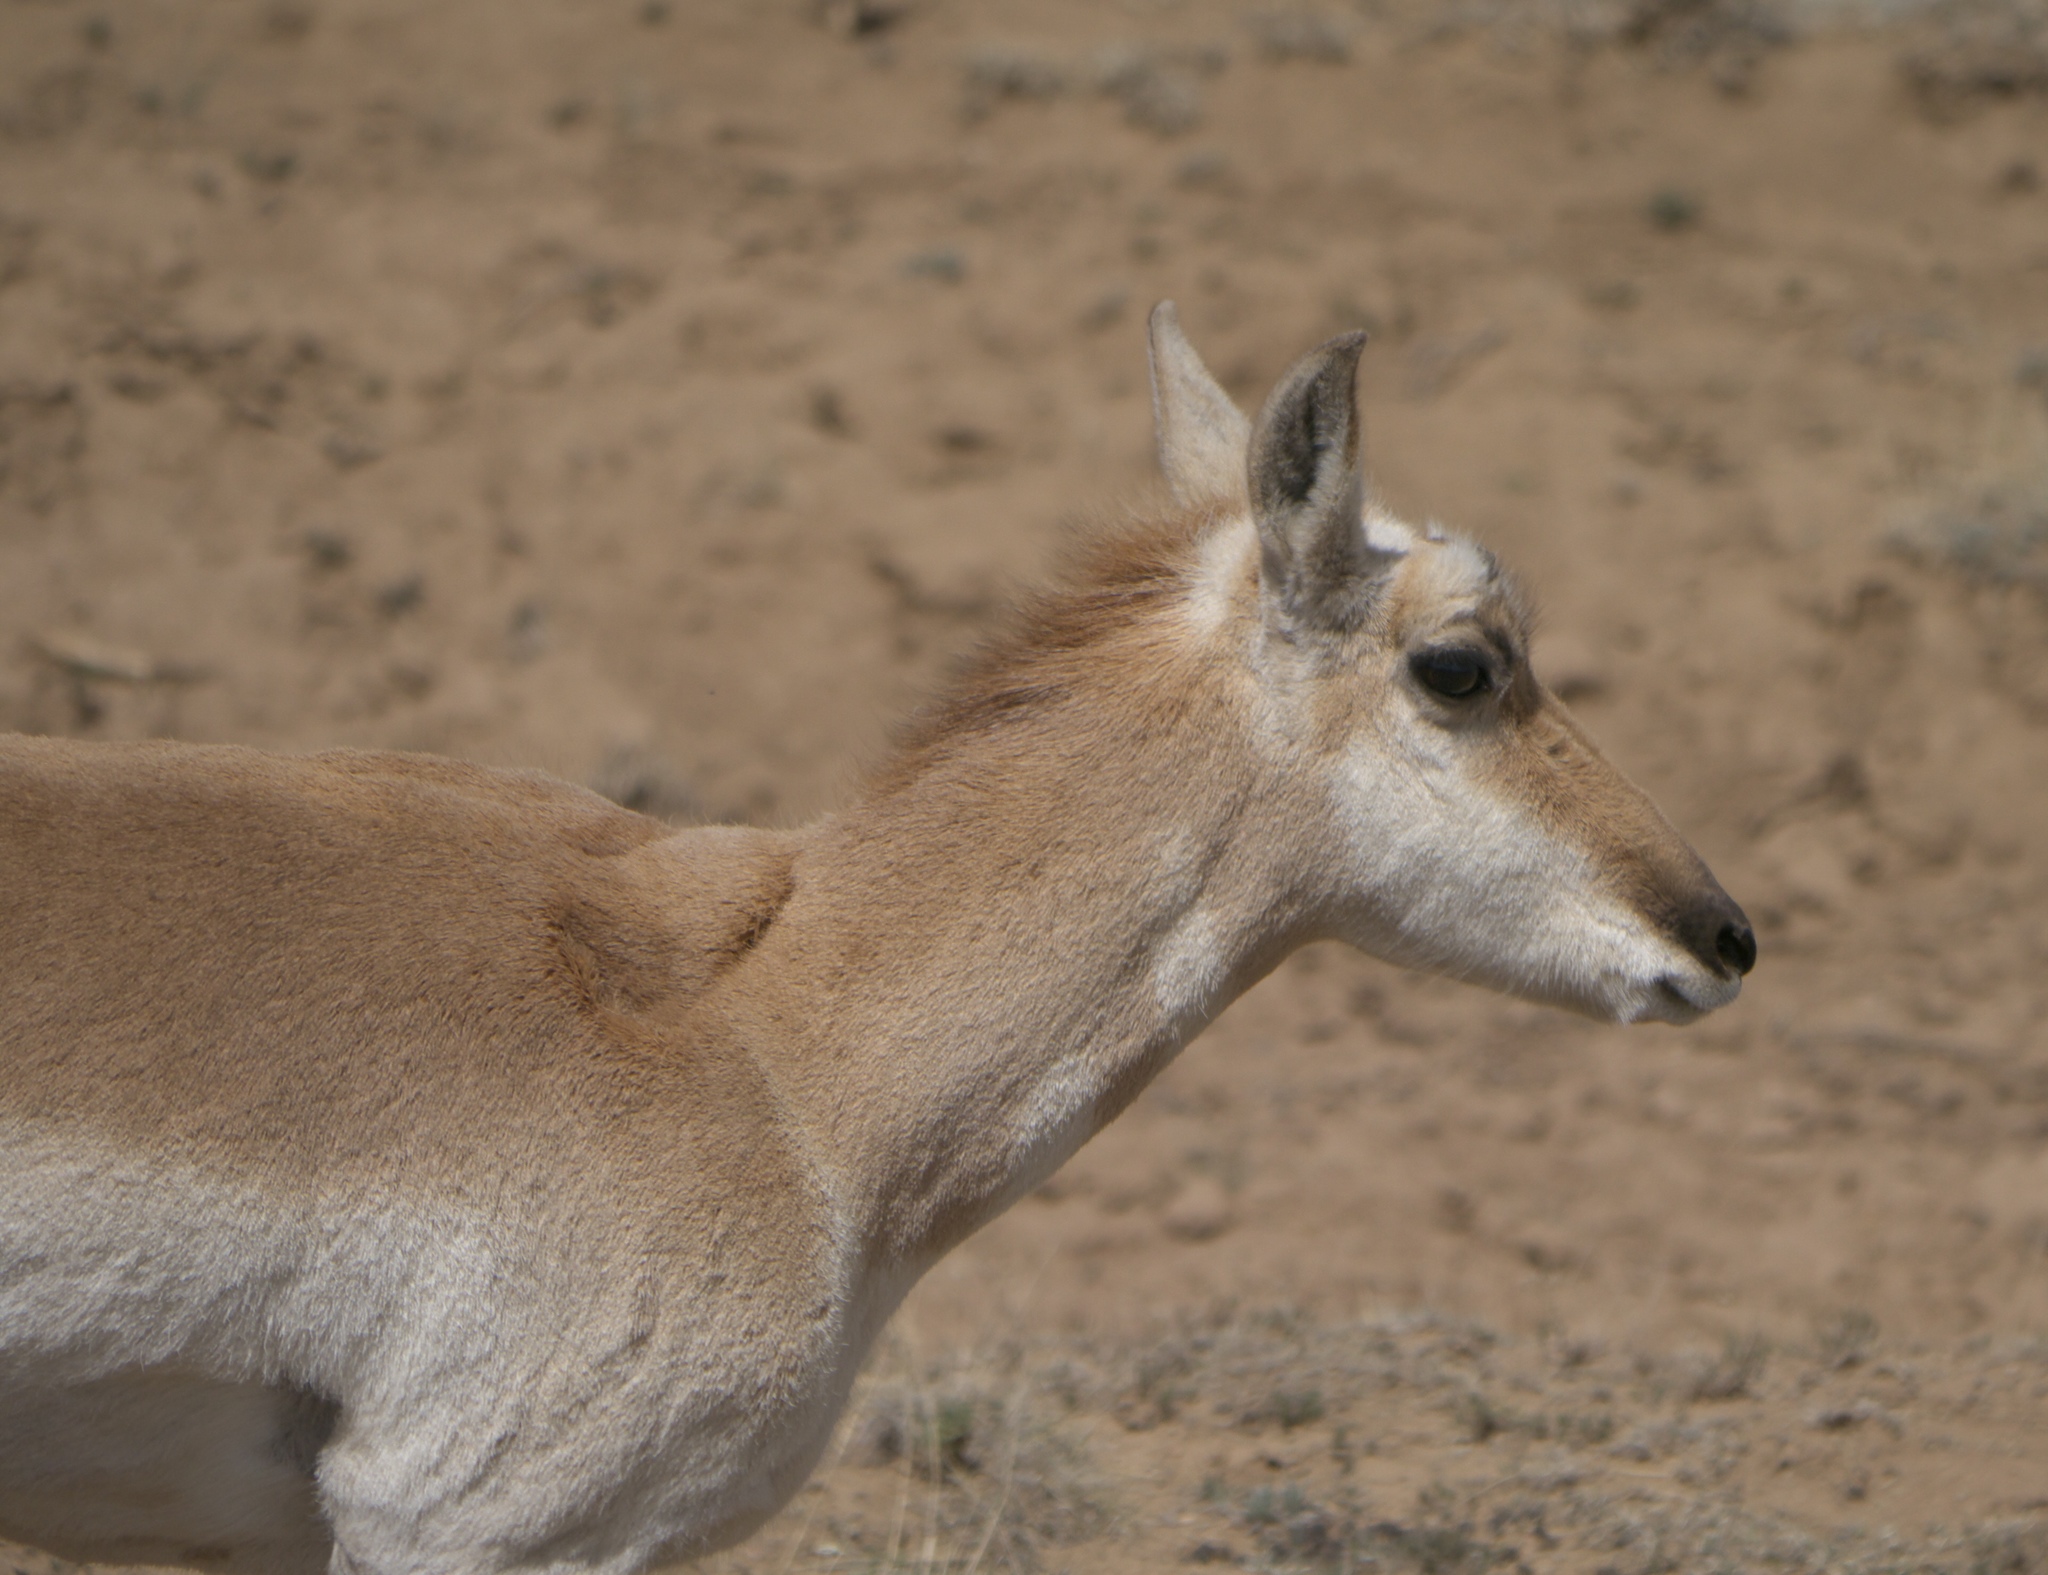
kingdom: Animalia
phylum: Chordata
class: Mammalia
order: Artiodactyla
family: Antilocapridae
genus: Antilocapra
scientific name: Antilocapra americana
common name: Pronghorn
